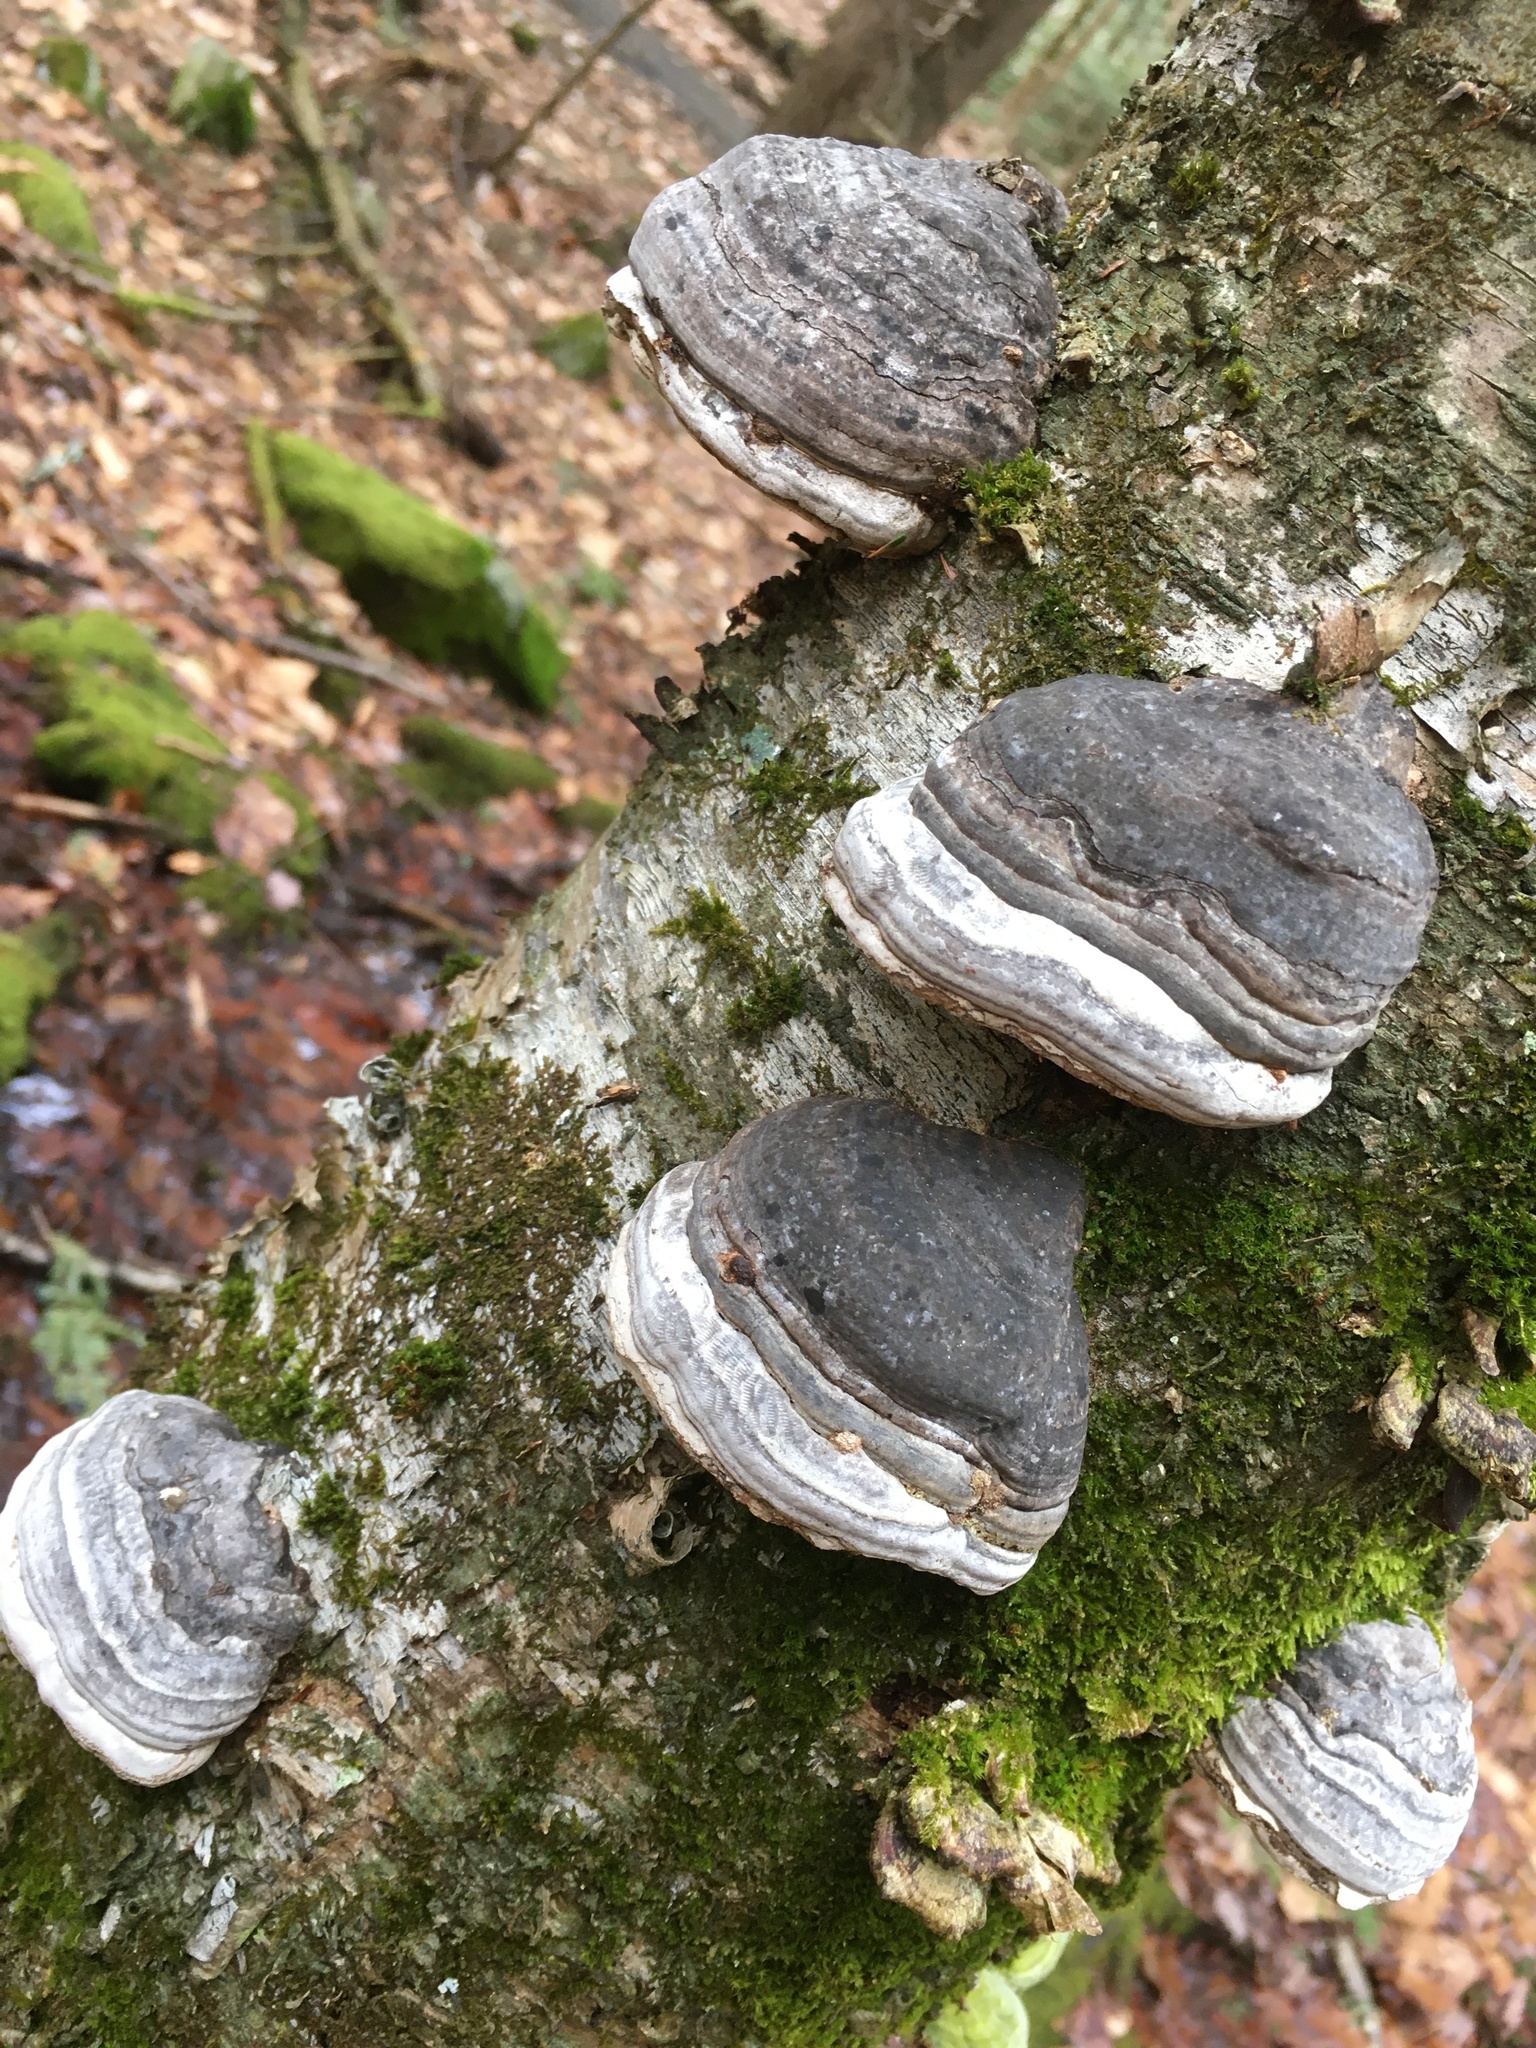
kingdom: Fungi
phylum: Basidiomycota
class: Agaricomycetes
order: Polyporales
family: Polyporaceae
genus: Fomes
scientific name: Fomes fomentarius
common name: Hoof fungus
